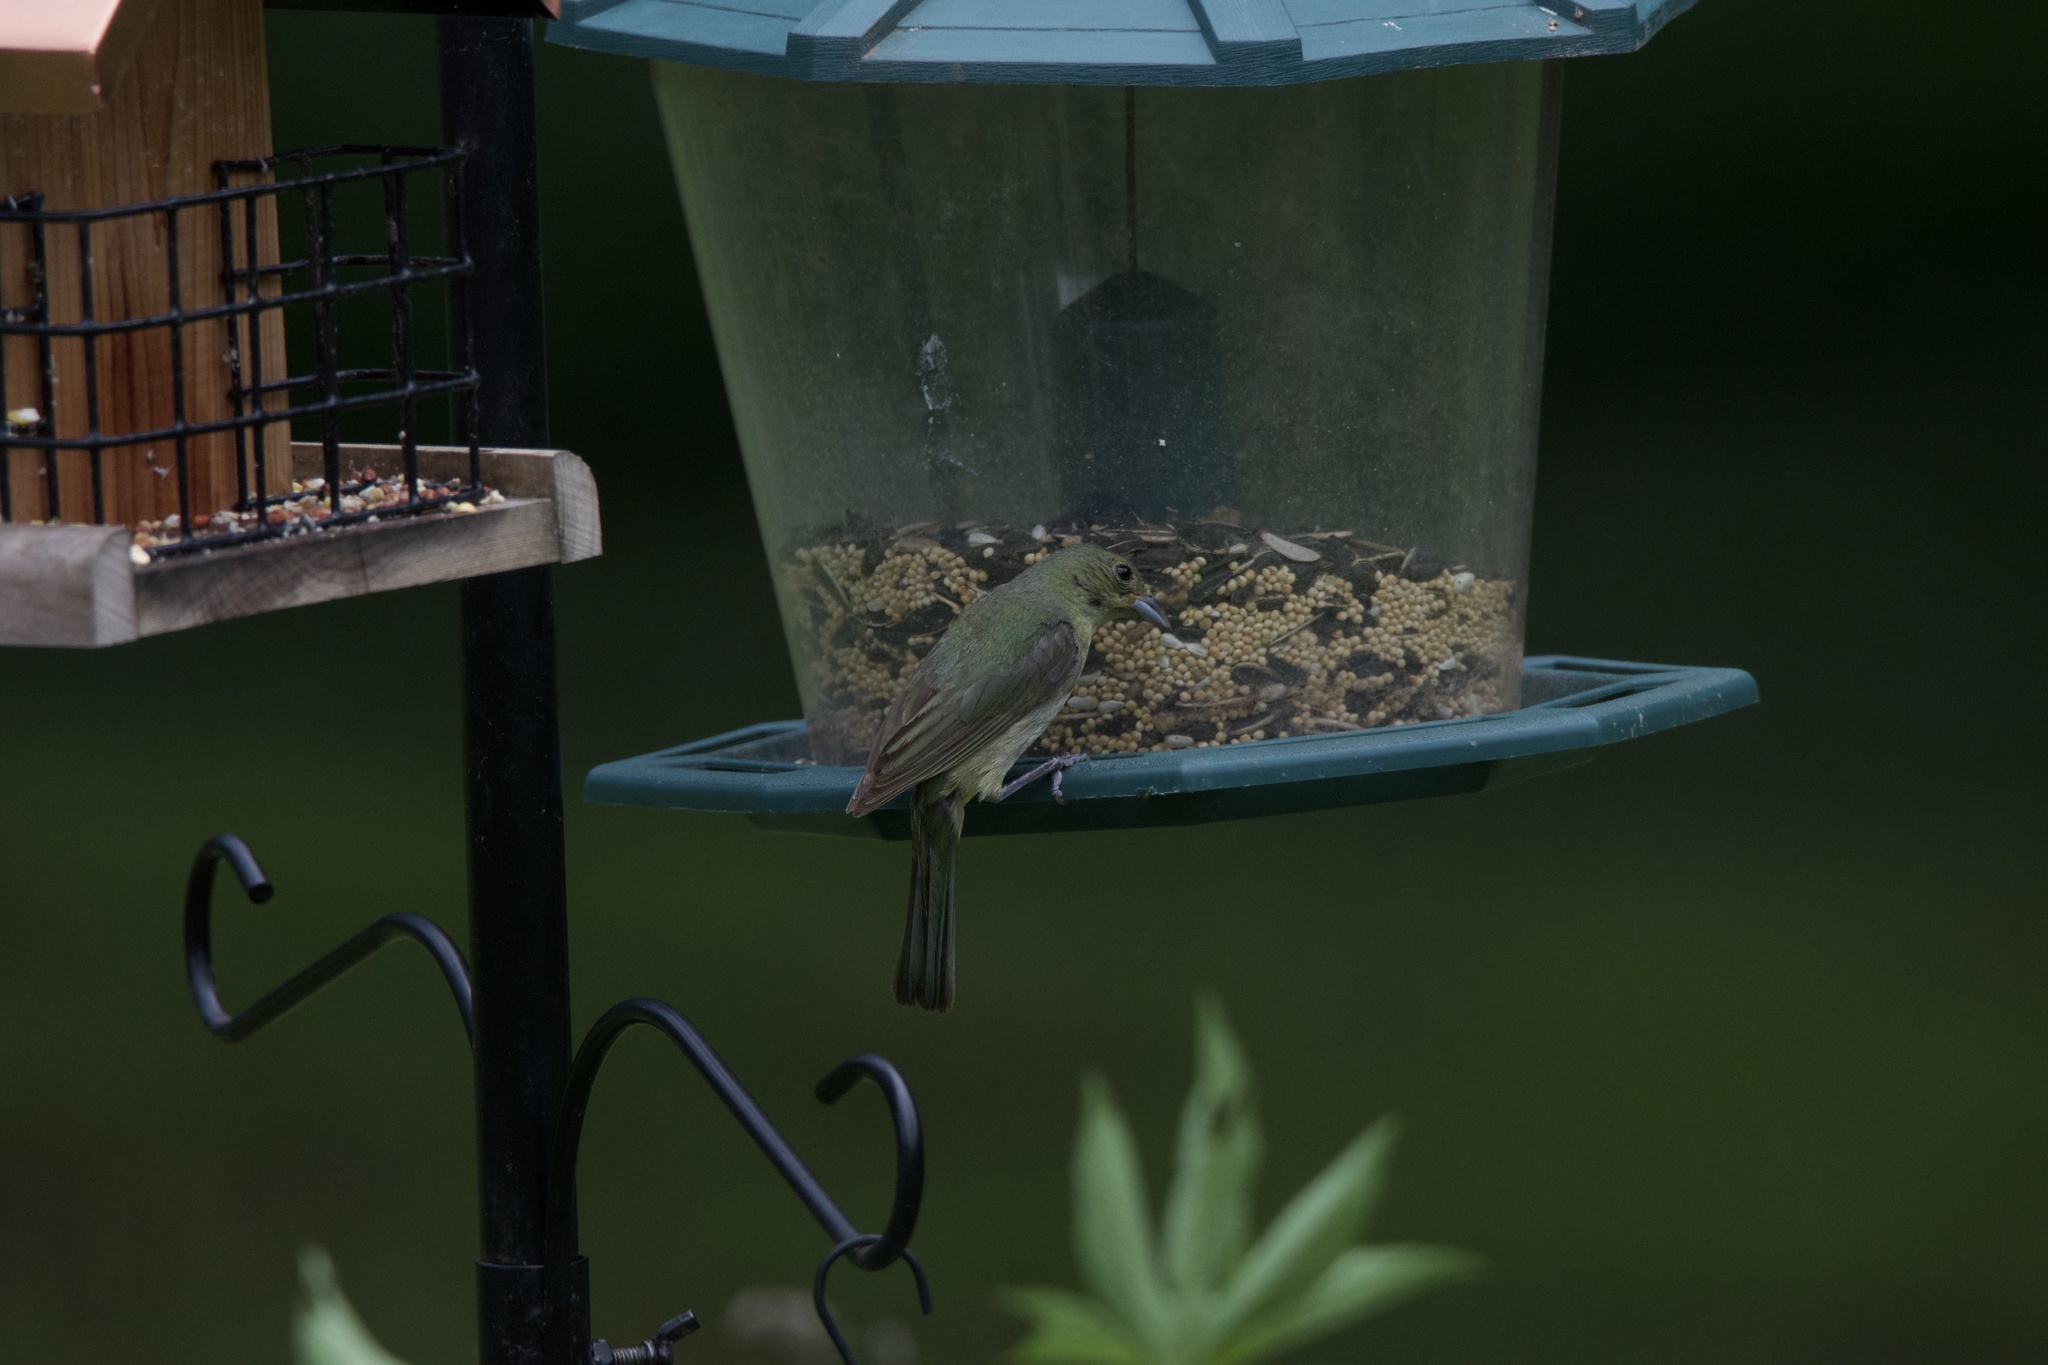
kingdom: Animalia
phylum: Chordata
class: Aves
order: Passeriformes
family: Cardinalidae
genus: Passerina
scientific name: Passerina ciris
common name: Painted bunting
